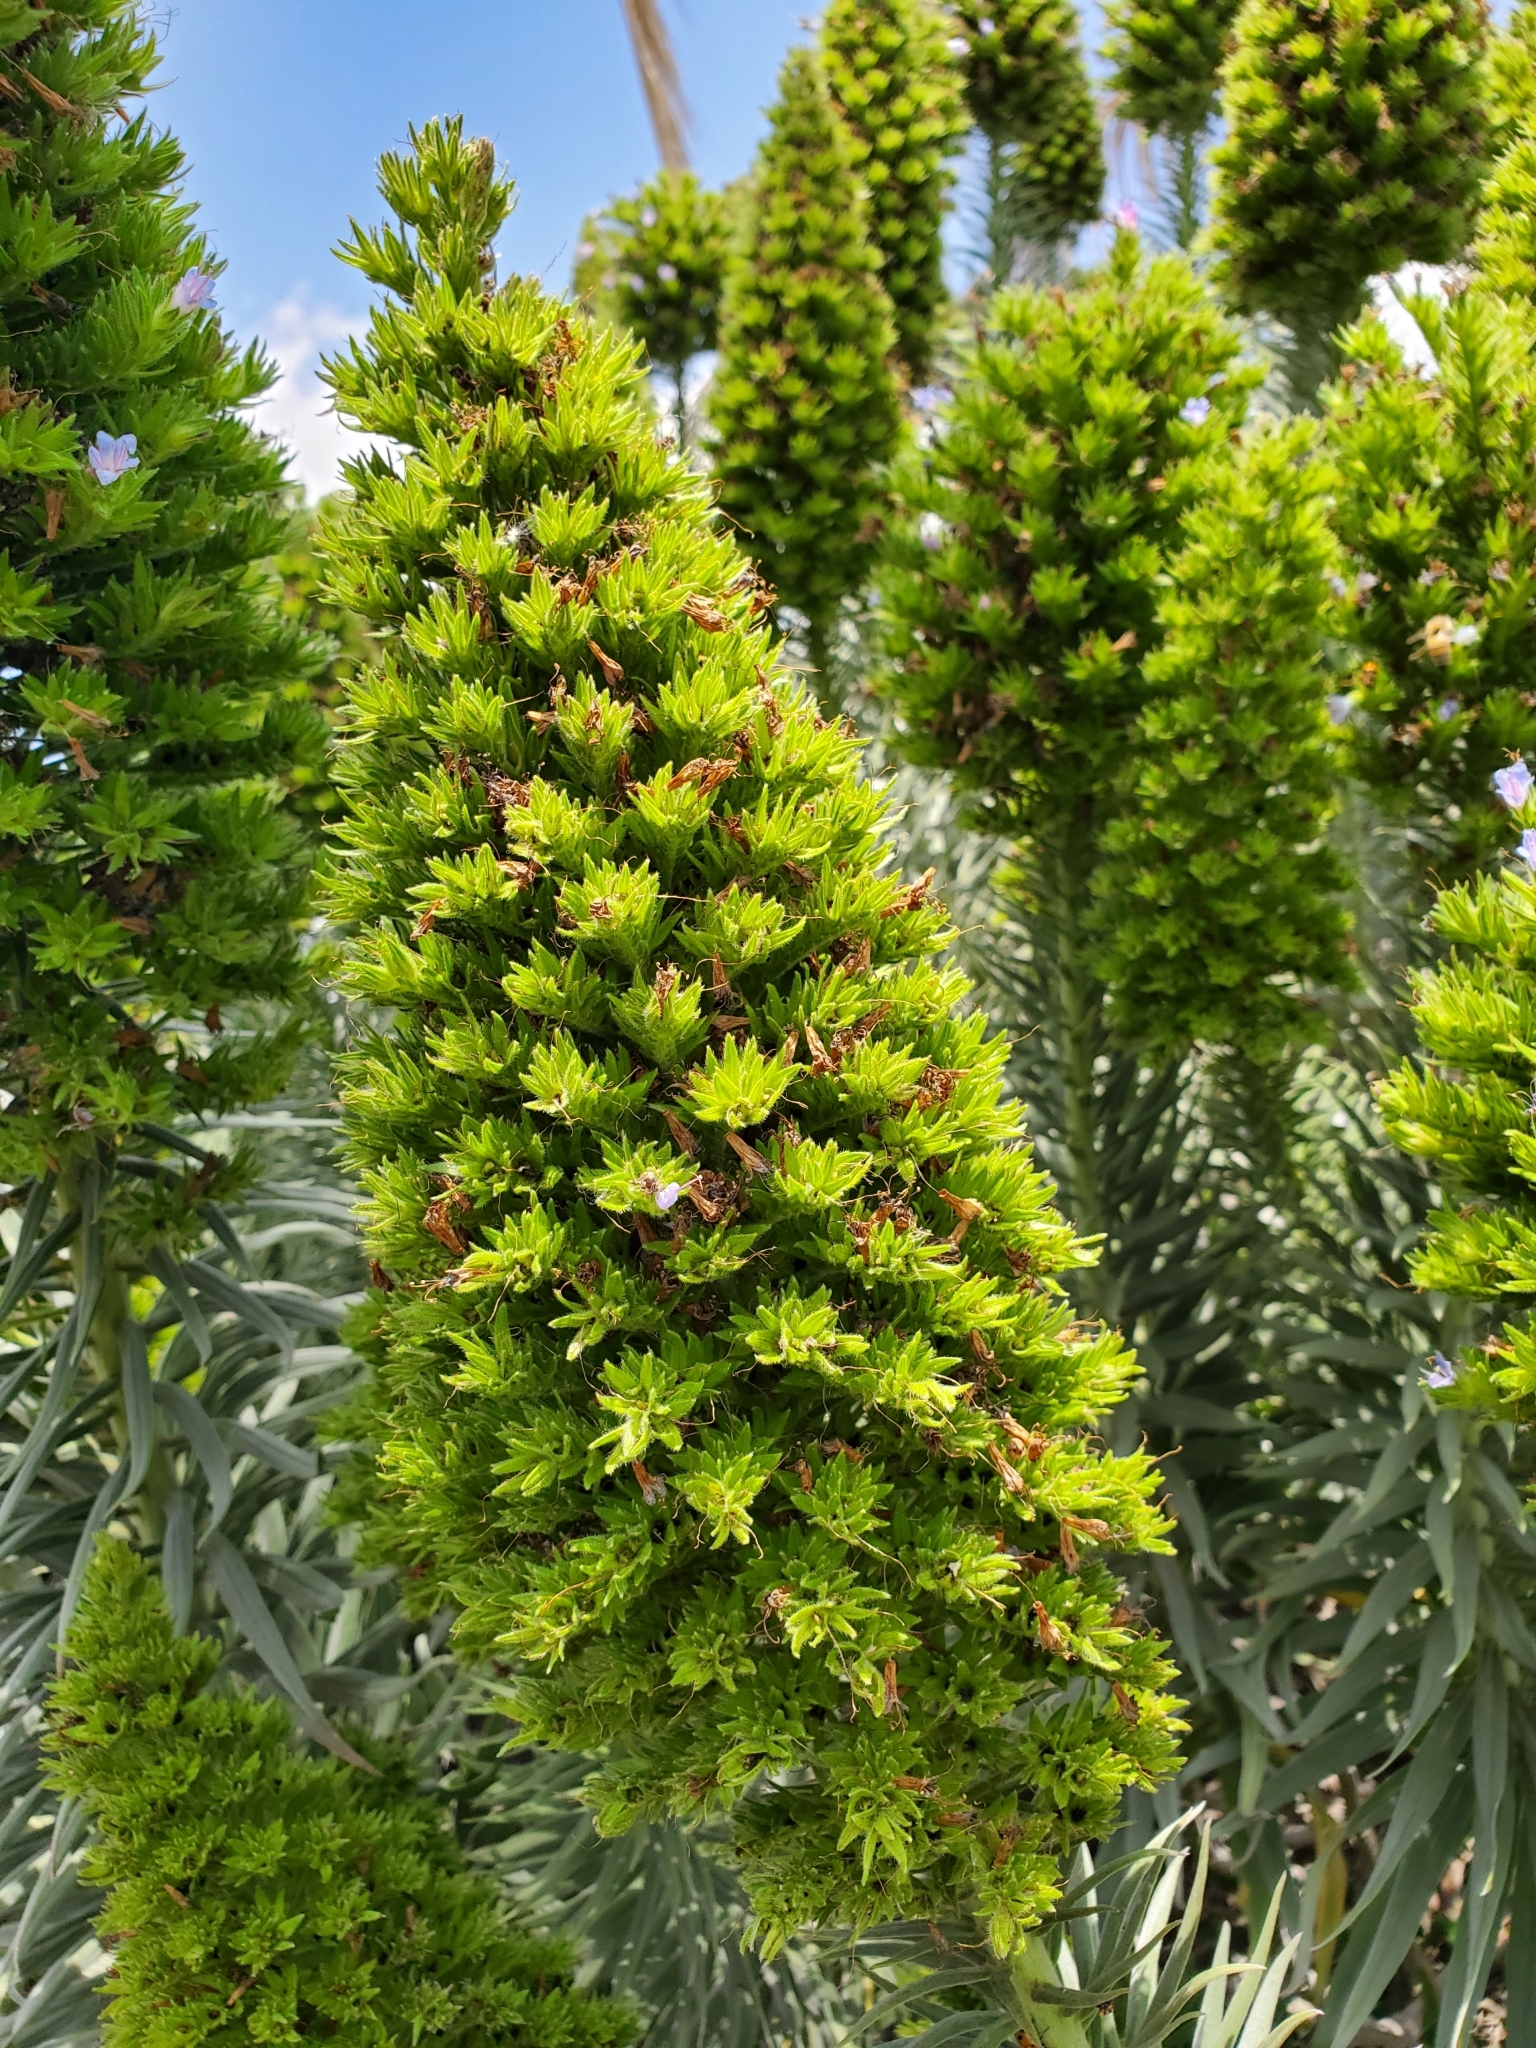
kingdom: Plantae
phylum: Tracheophyta
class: Magnoliopsida
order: Boraginales
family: Boraginaceae
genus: Echium
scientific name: Echium candicans
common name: Pride of madeira
